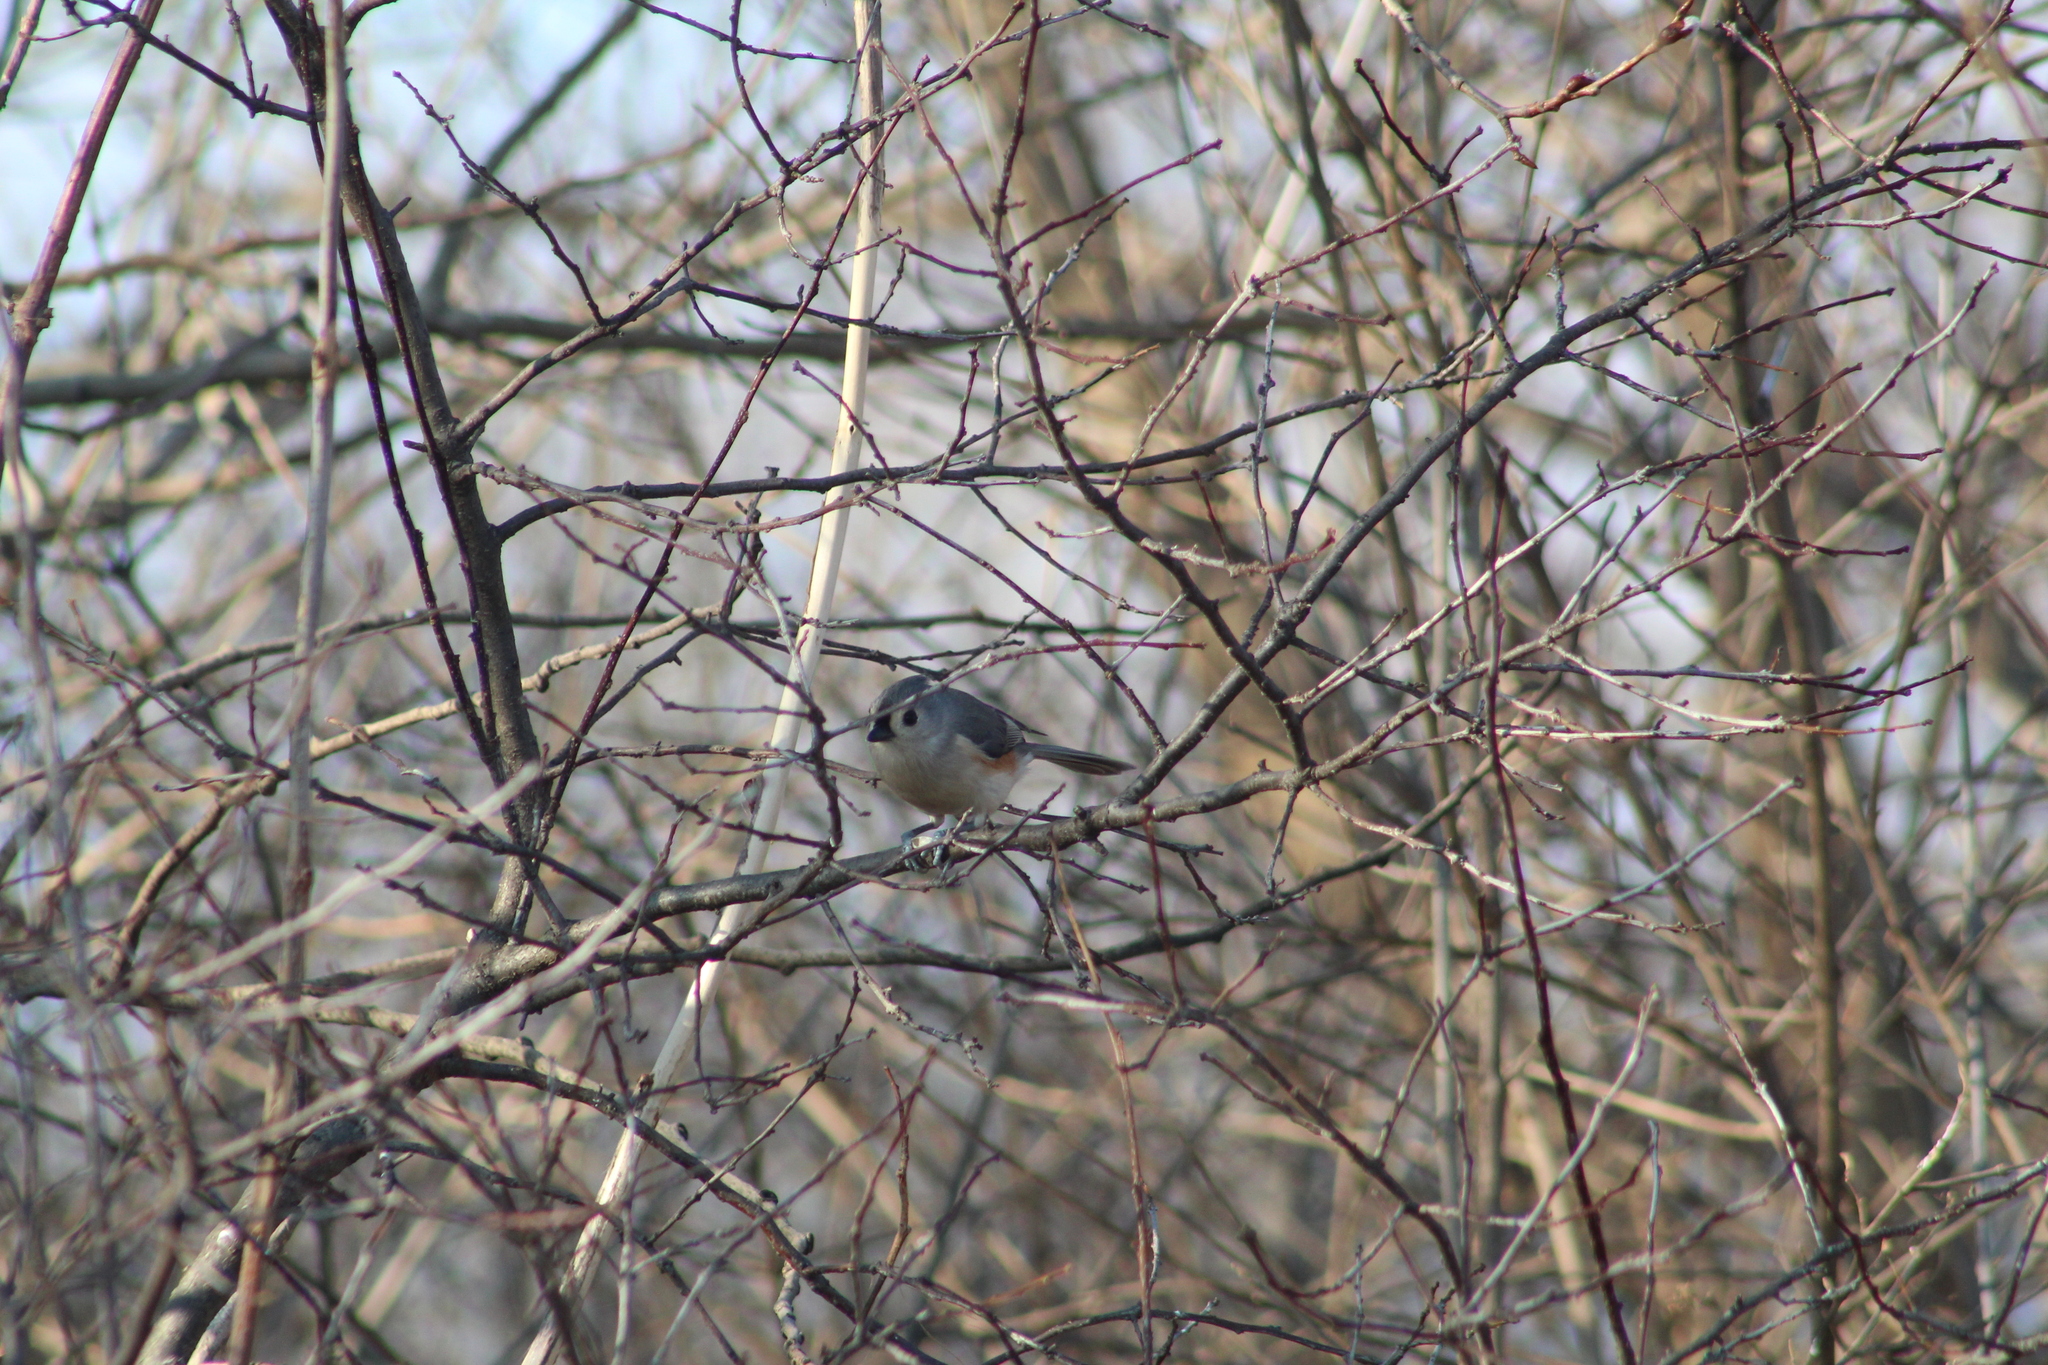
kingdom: Animalia
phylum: Chordata
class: Aves
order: Passeriformes
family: Paridae
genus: Baeolophus
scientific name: Baeolophus bicolor
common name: Tufted titmouse
